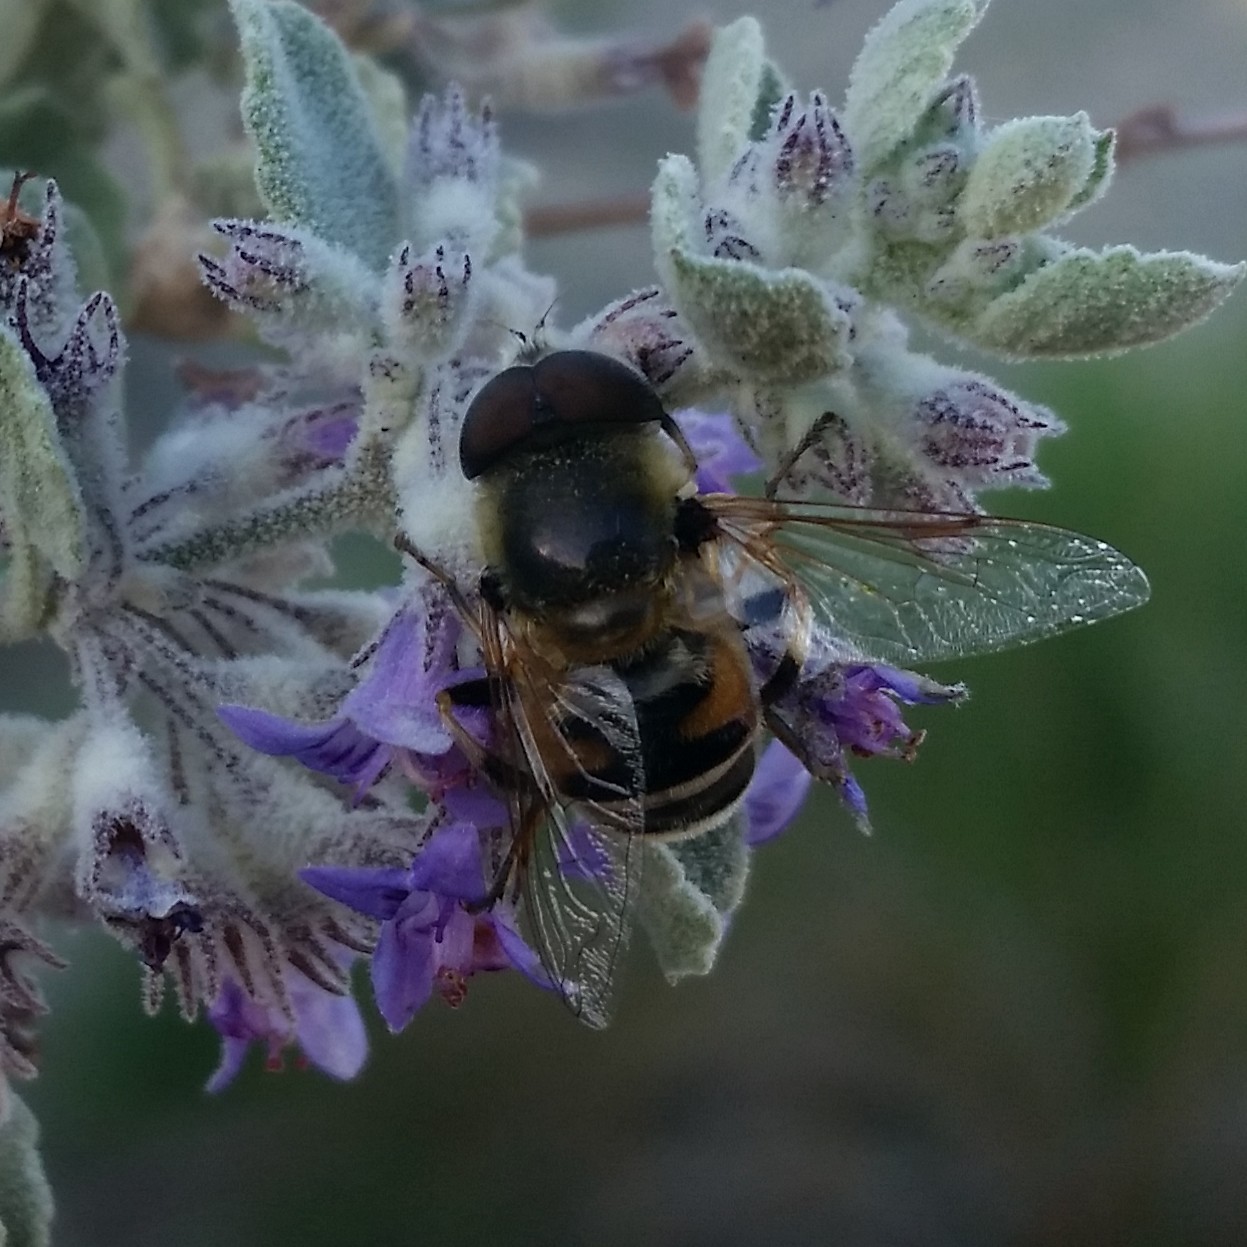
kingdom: Animalia
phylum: Arthropoda
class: Insecta
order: Diptera
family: Syrphidae
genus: Eristalis
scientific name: Eristalis stipator
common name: Yellow-shouldered drone fly
